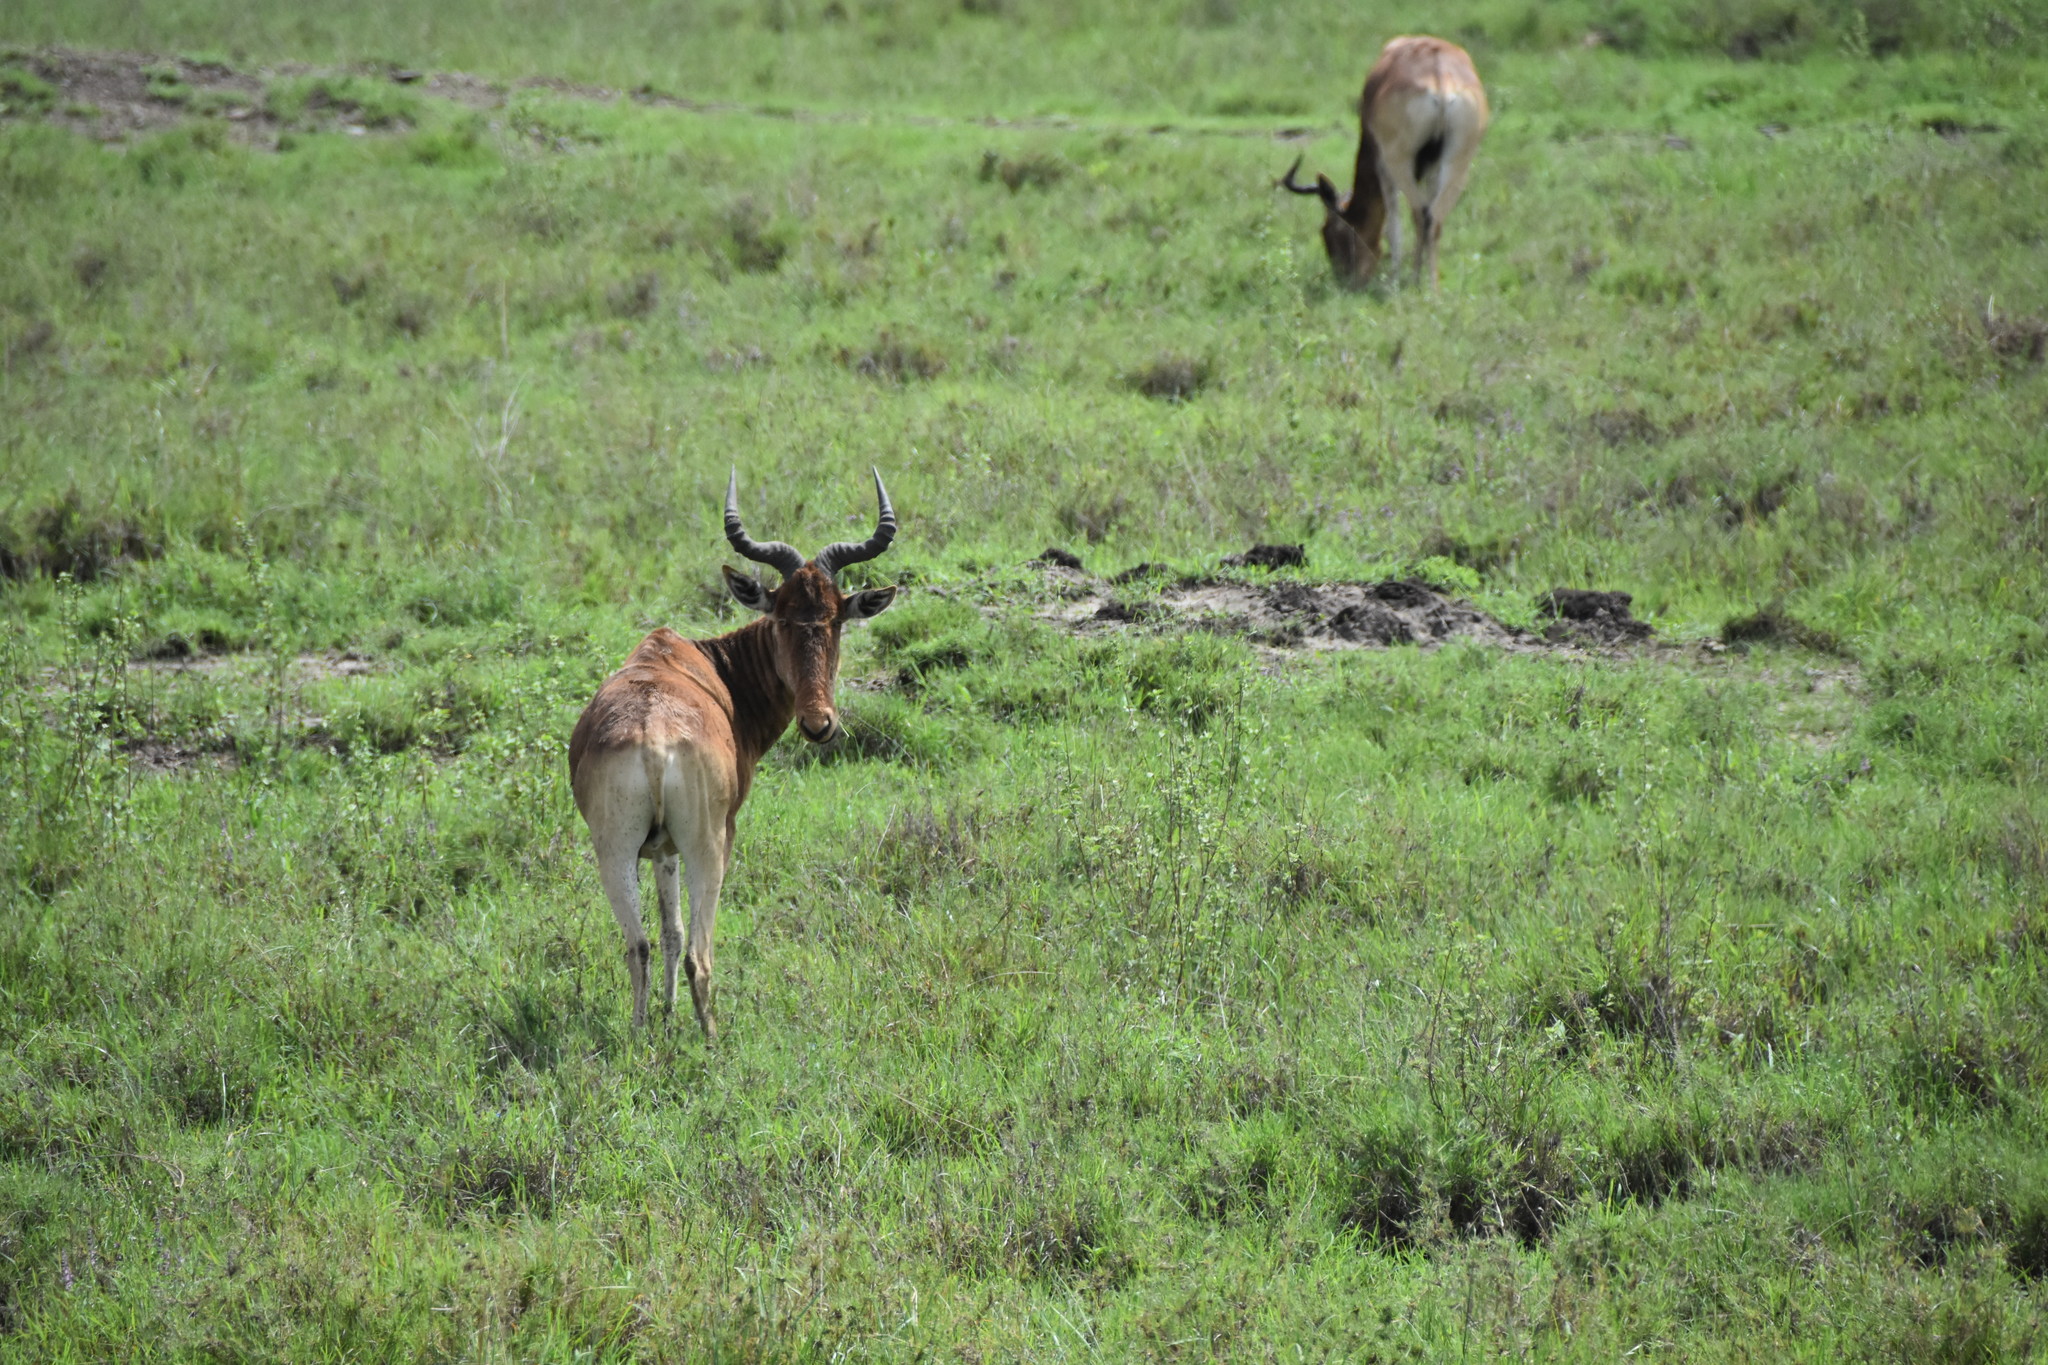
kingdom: Animalia
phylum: Chordata
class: Mammalia
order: Artiodactyla
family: Bovidae
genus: Alcelaphus
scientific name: Alcelaphus buselaphus
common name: Hartebeest
